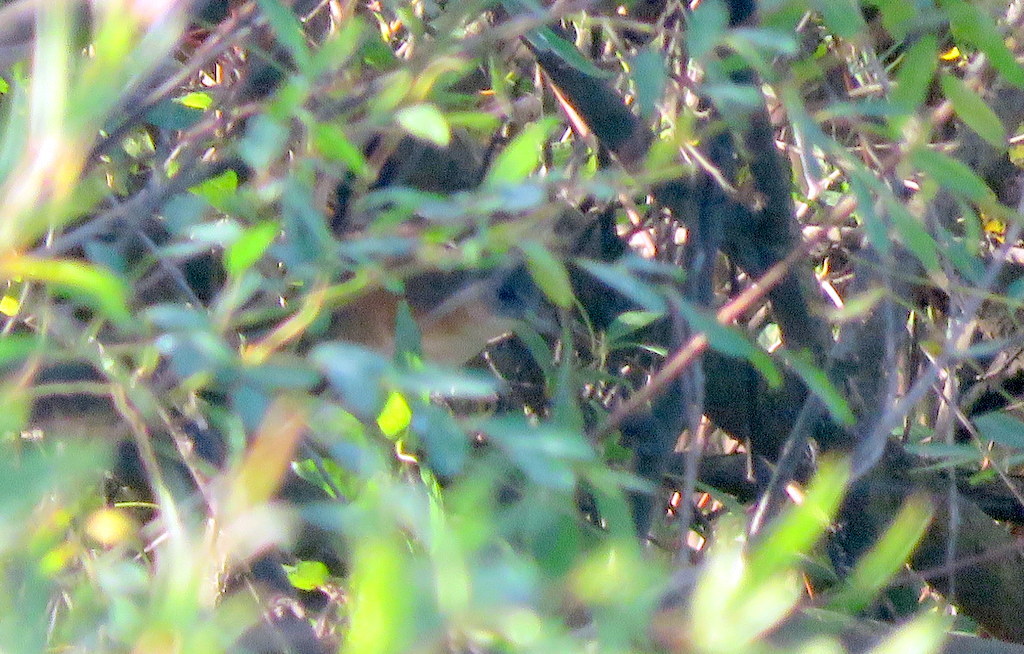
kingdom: Animalia
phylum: Chordata
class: Aves
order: Gruiformes
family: Rallidae
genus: Laterallus
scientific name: Laterallus melanophaius
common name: Rufous-sided crake
